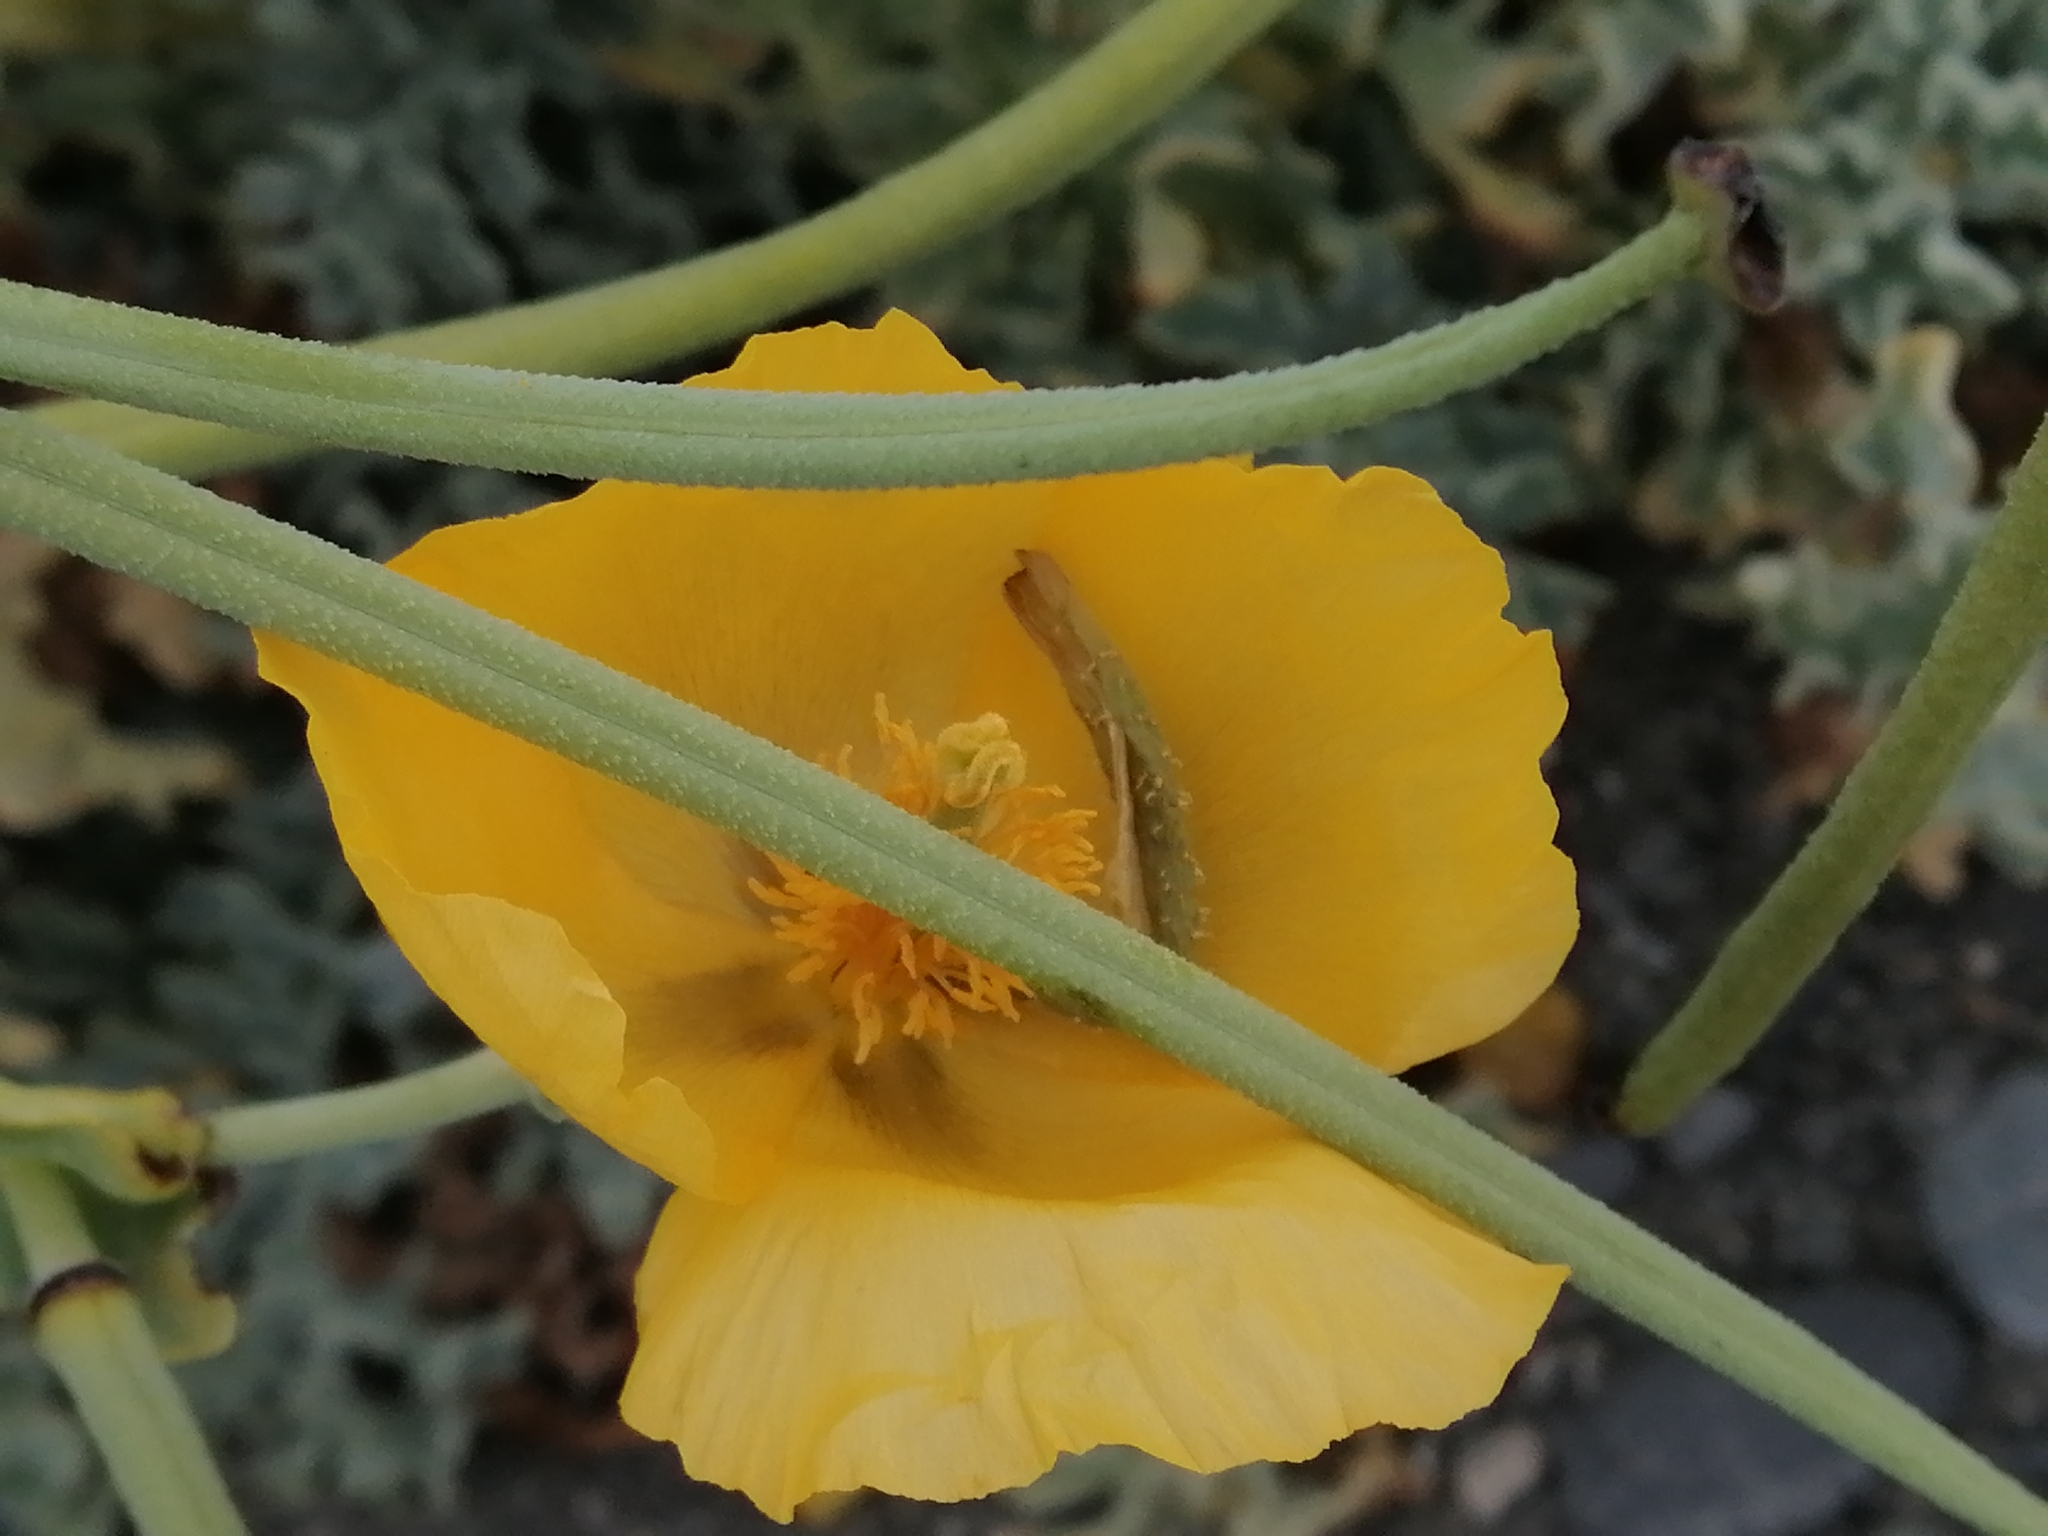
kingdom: Plantae
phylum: Tracheophyta
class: Magnoliopsida
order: Ranunculales
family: Papaveraceae
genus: Glaucium
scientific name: Glaucium flavum
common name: Yellow horned-poppy
